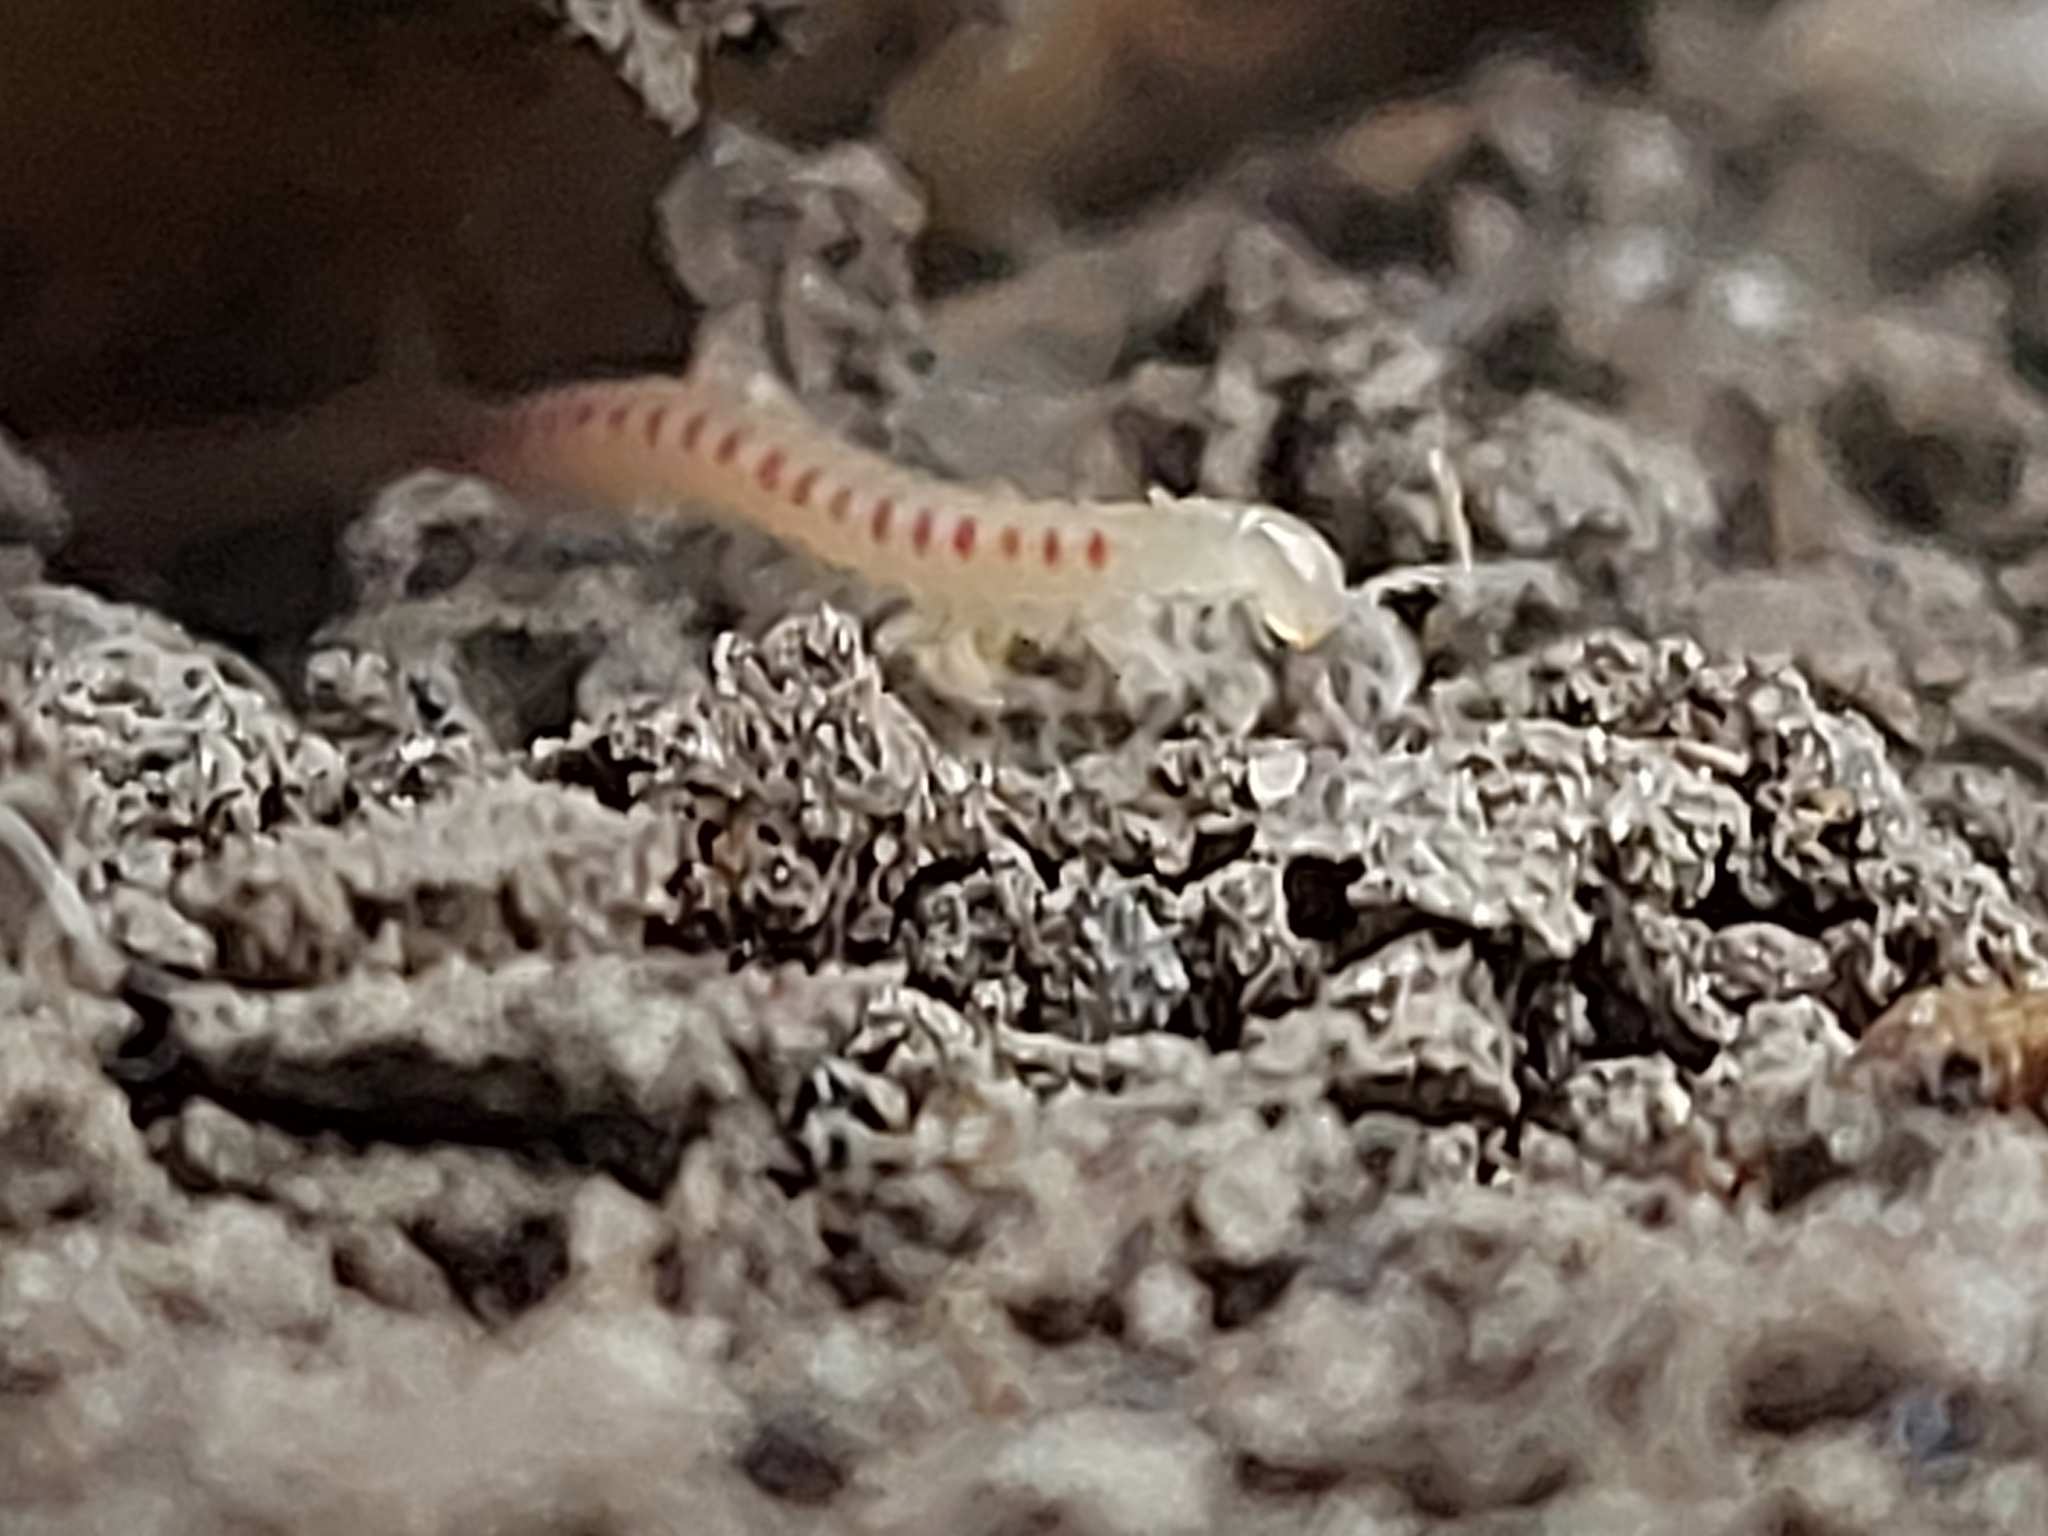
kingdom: Animalia
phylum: Arthropoda
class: Diplopoda
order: Julida
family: Blaniulidae
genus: Blaniulus
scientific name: Blaniulus guttulatus
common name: Spotted snake millipede
